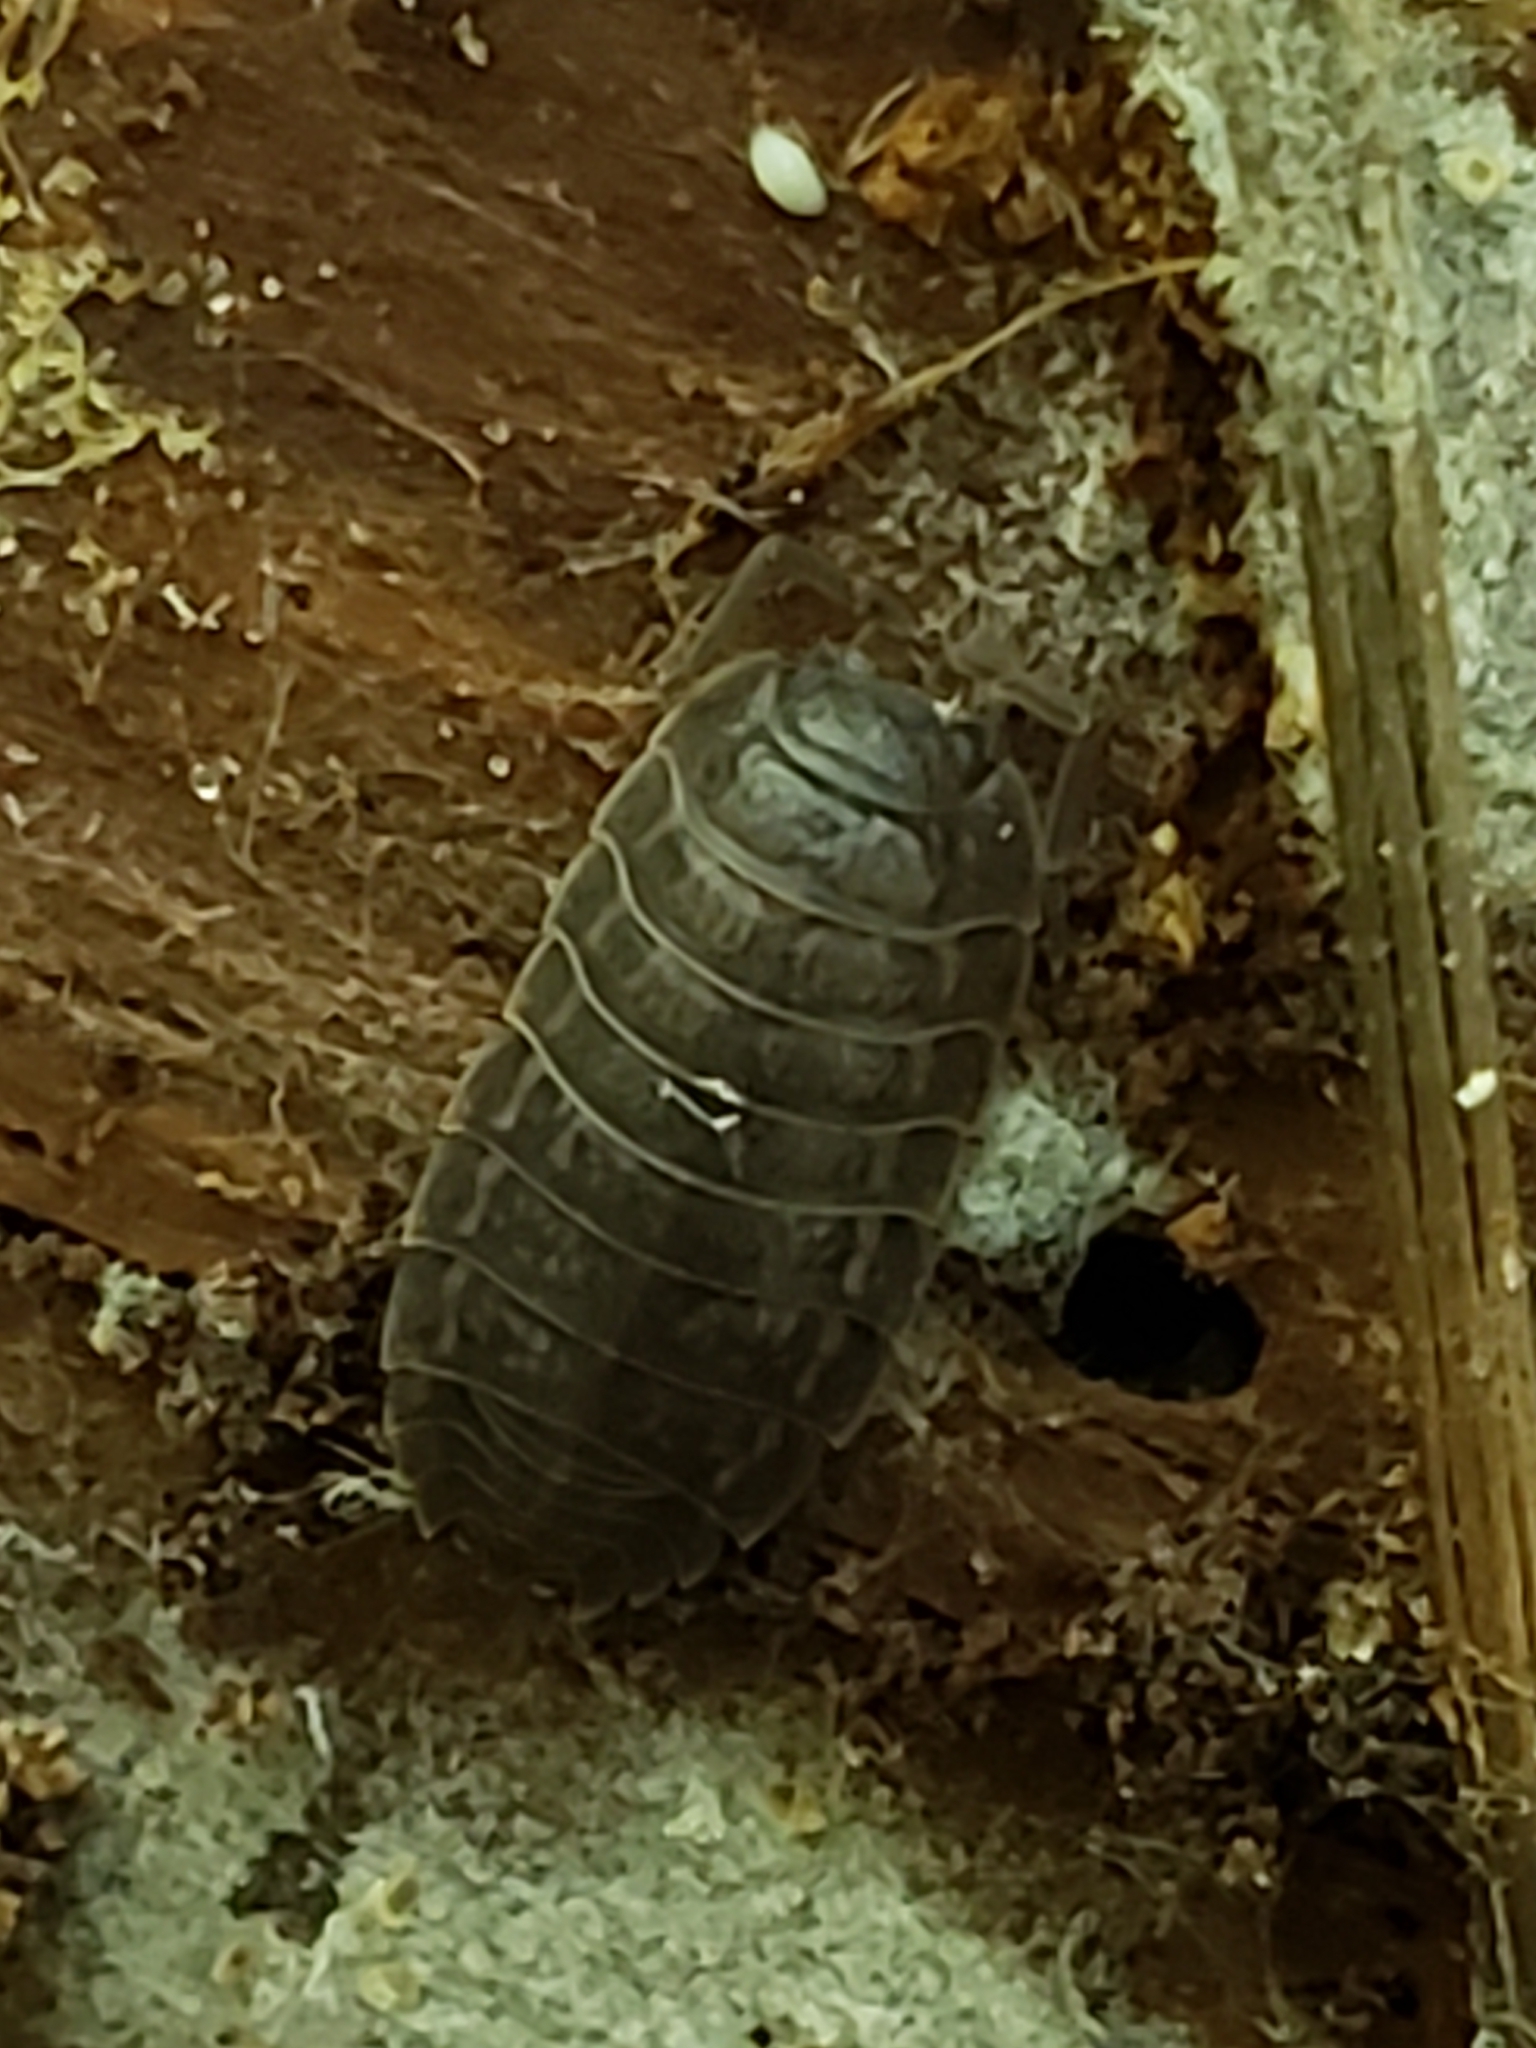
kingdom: Animalia
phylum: Arthropoda
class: Malacostraca
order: Isopoda
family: Trachelipodidae
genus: Trachelipus
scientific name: Trachelipus rathkii
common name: Isopod
